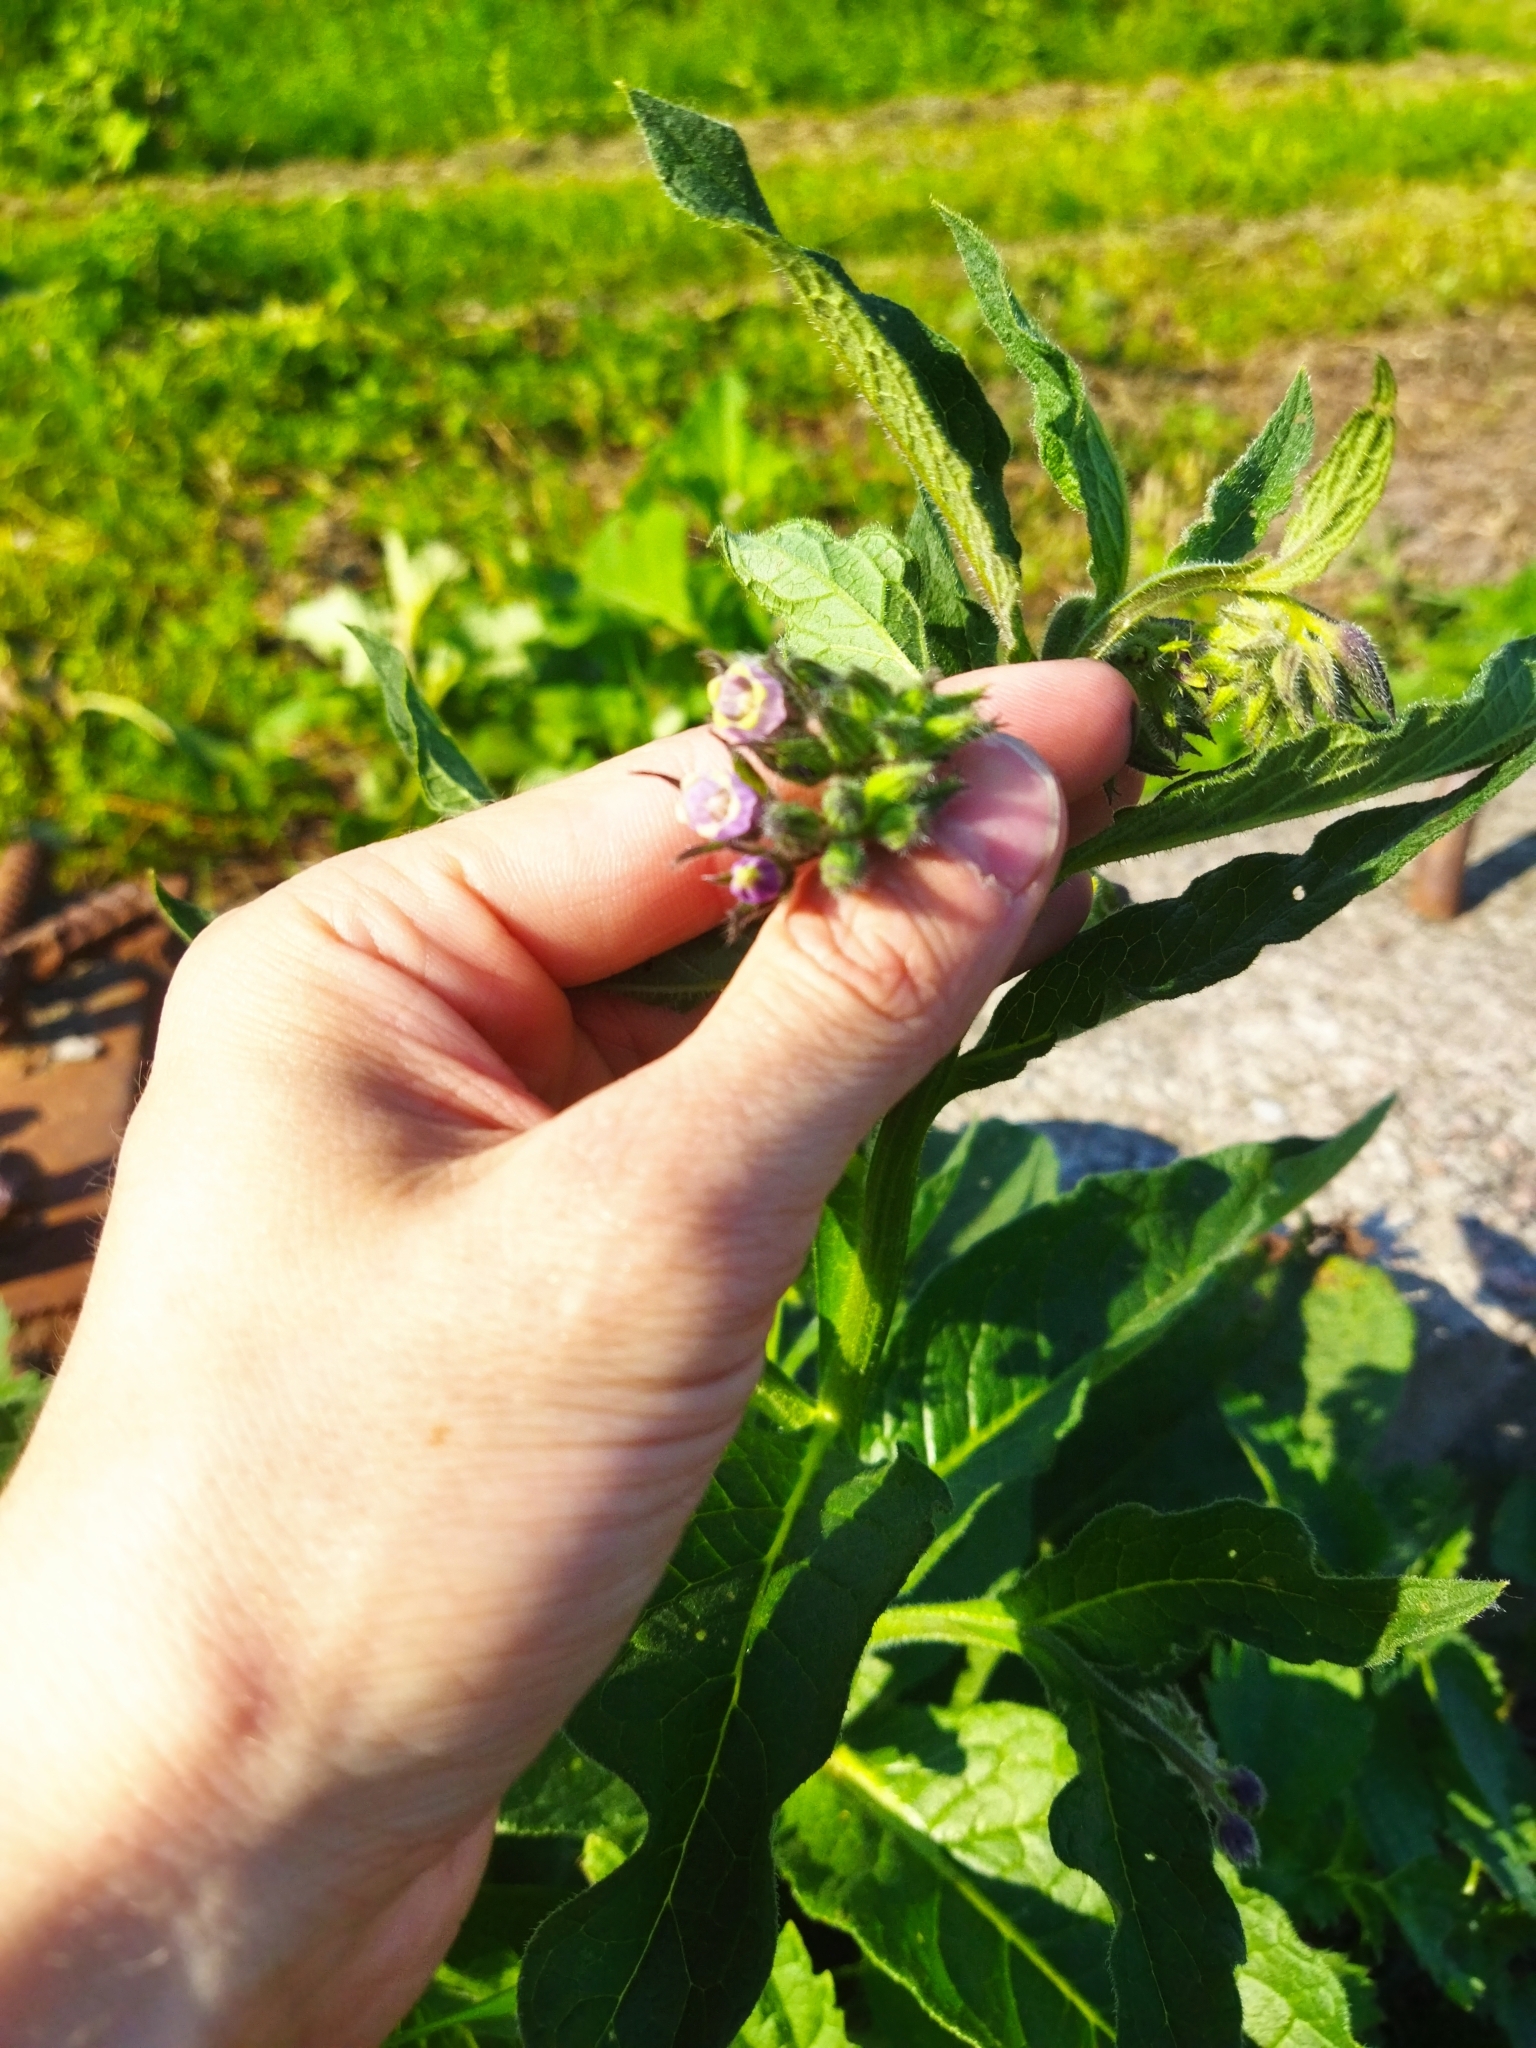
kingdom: Plantae
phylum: Tracheophyta
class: Magnoliopsida
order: Boraginales
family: Boraginaceae
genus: Symphytum
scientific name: Symphytum officinale
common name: Common comfrey
